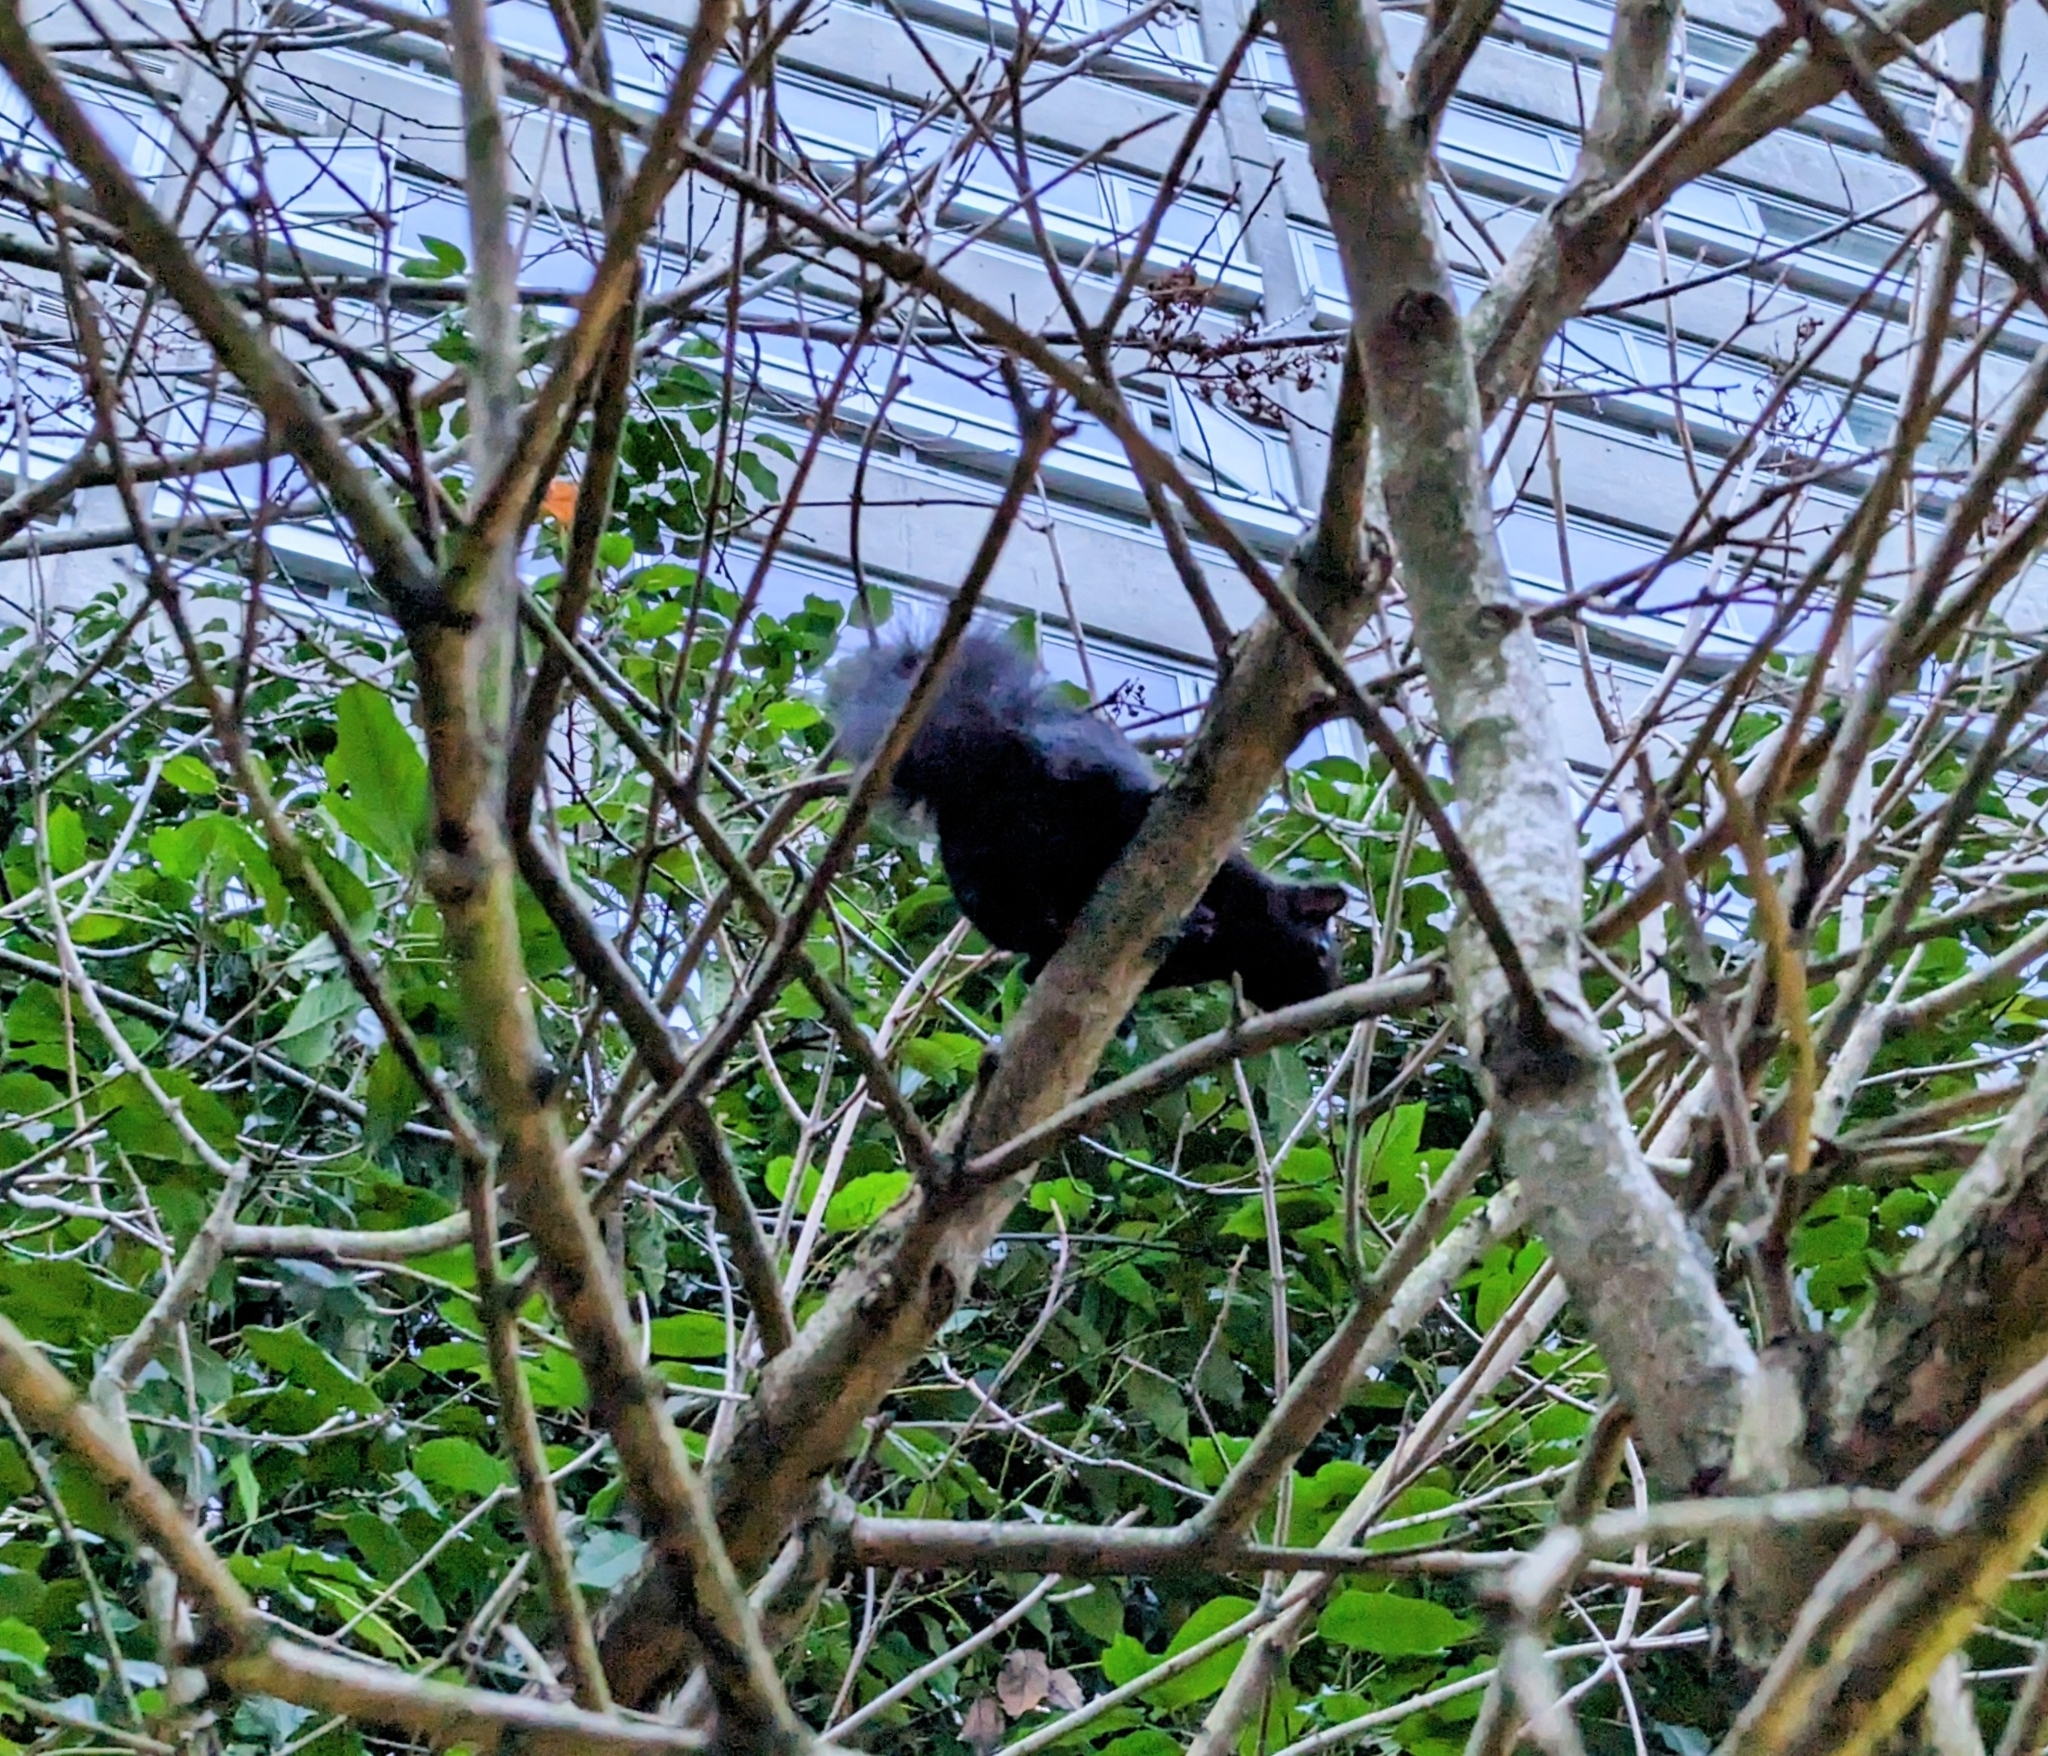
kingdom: Animalia
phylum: Chordata
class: Mammalia
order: Rodentia
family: Sciuridae
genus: Sciurus
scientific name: Sciurus carolinensis
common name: Eastern gray squirrel
